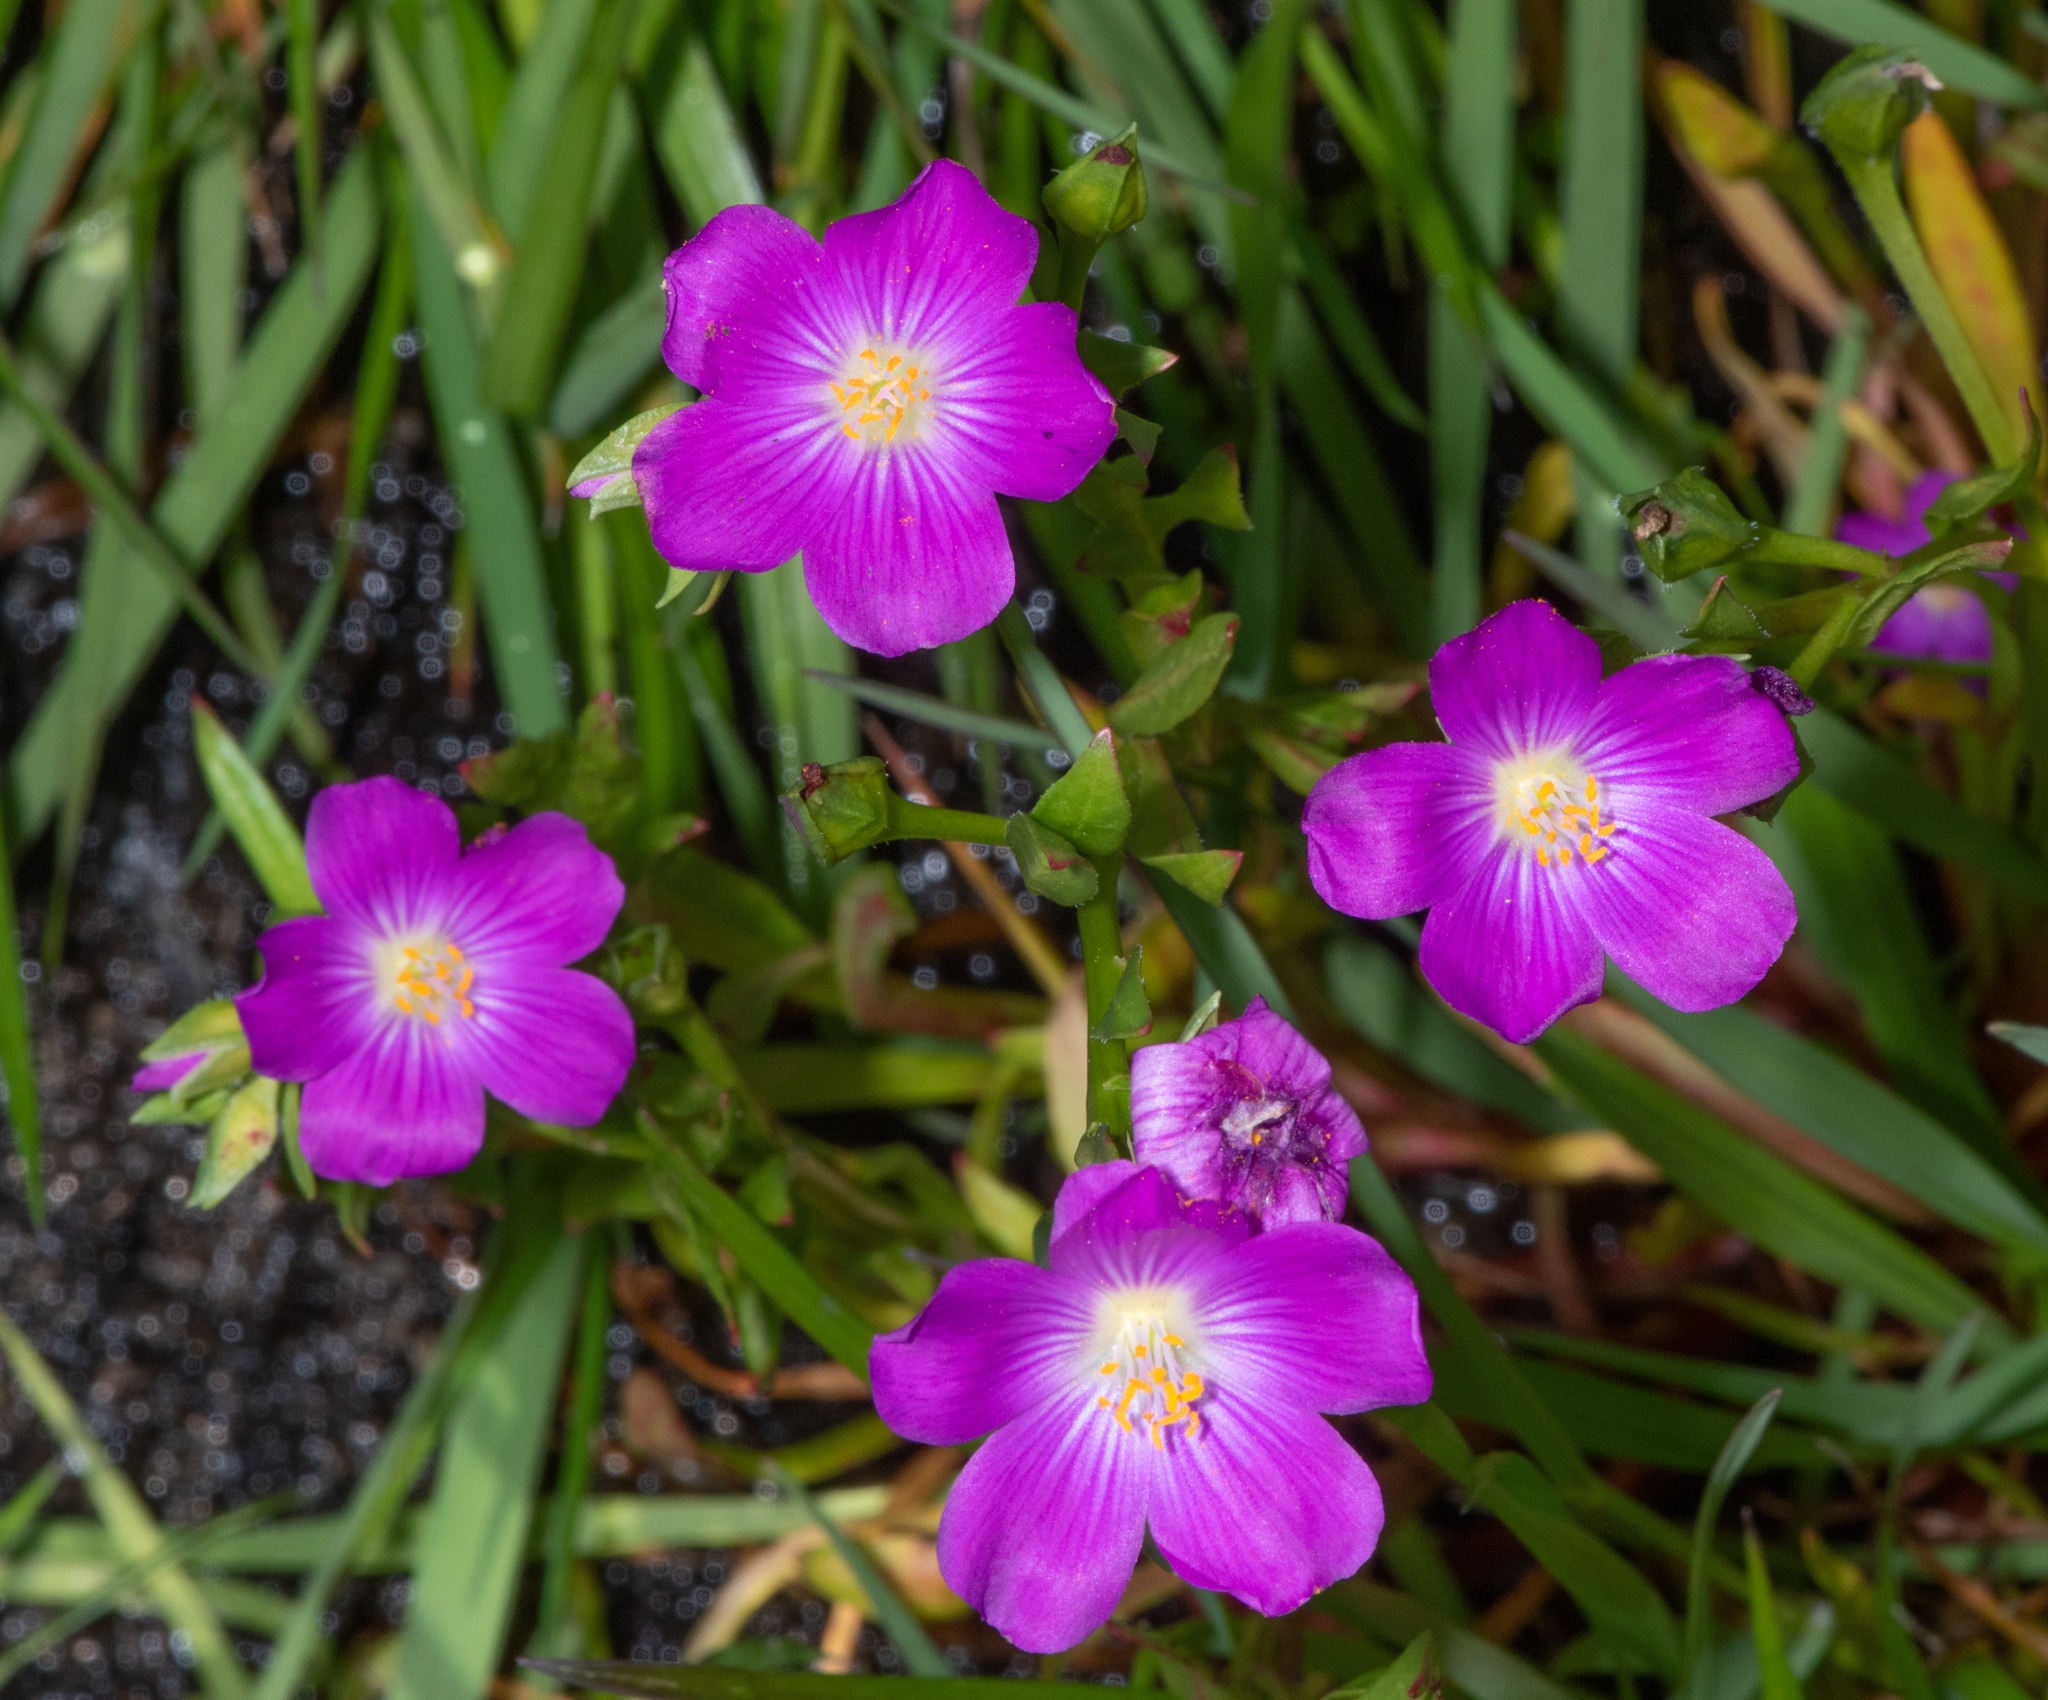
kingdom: Plantae
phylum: Tracheophyta
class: Magnoliopsida
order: Caryophyllales
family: Montiaceae
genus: Calandrinia
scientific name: Calandrinia menziesii
